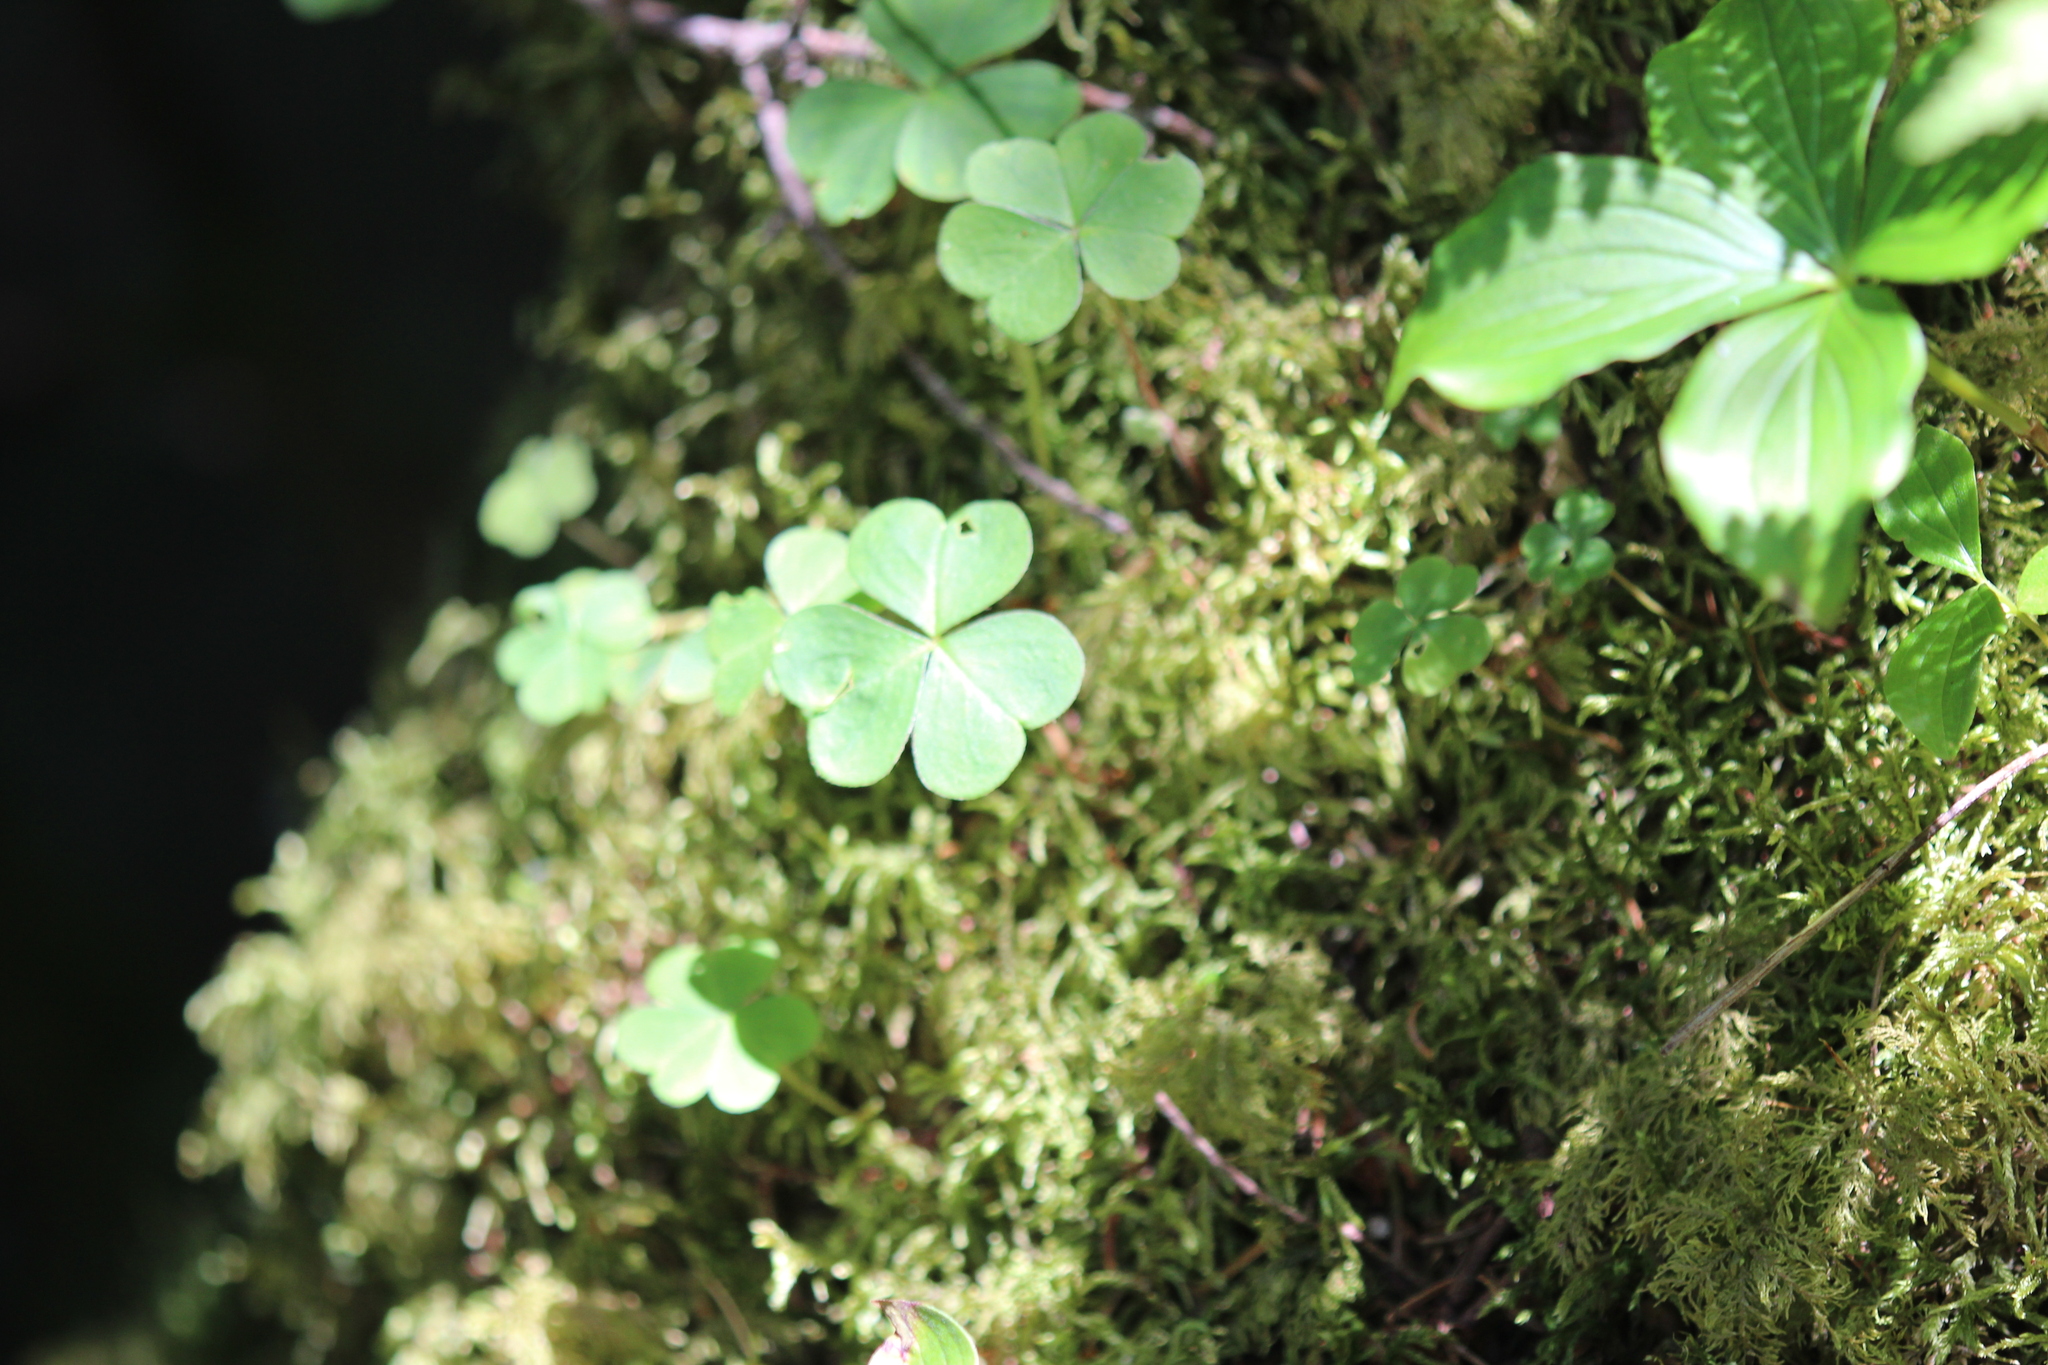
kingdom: Plantae
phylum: Tracheophyta
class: Magnoliopsida
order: Oxalidales
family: Oxalidaceae
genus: Oxalis
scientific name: Oxalis montana
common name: American wood-sorrel
